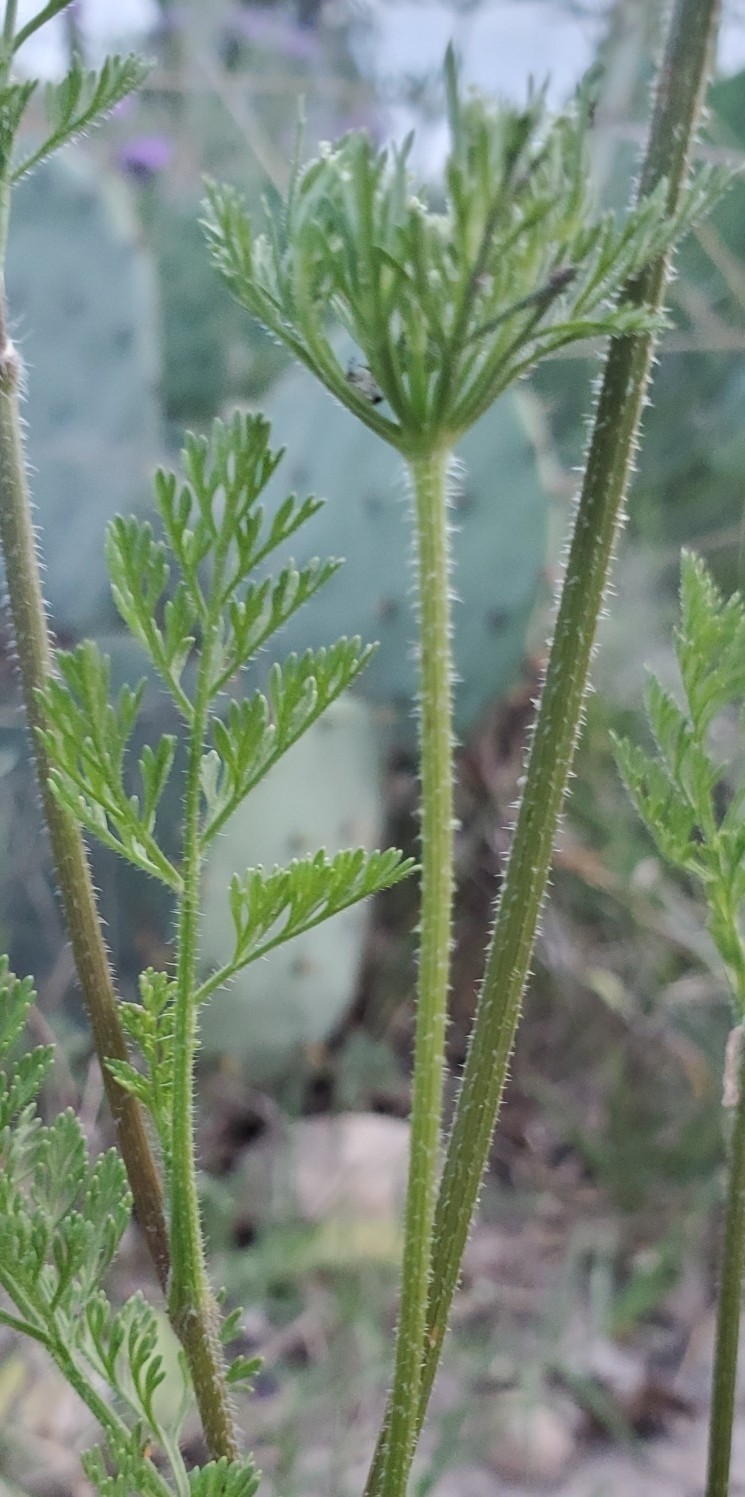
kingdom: Plantae
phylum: Tracheophyta
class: Magnoliopsida
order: Apiales
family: Apiaceae
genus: Daucus
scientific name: Daucus pusillus
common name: Southwest wild carrot
